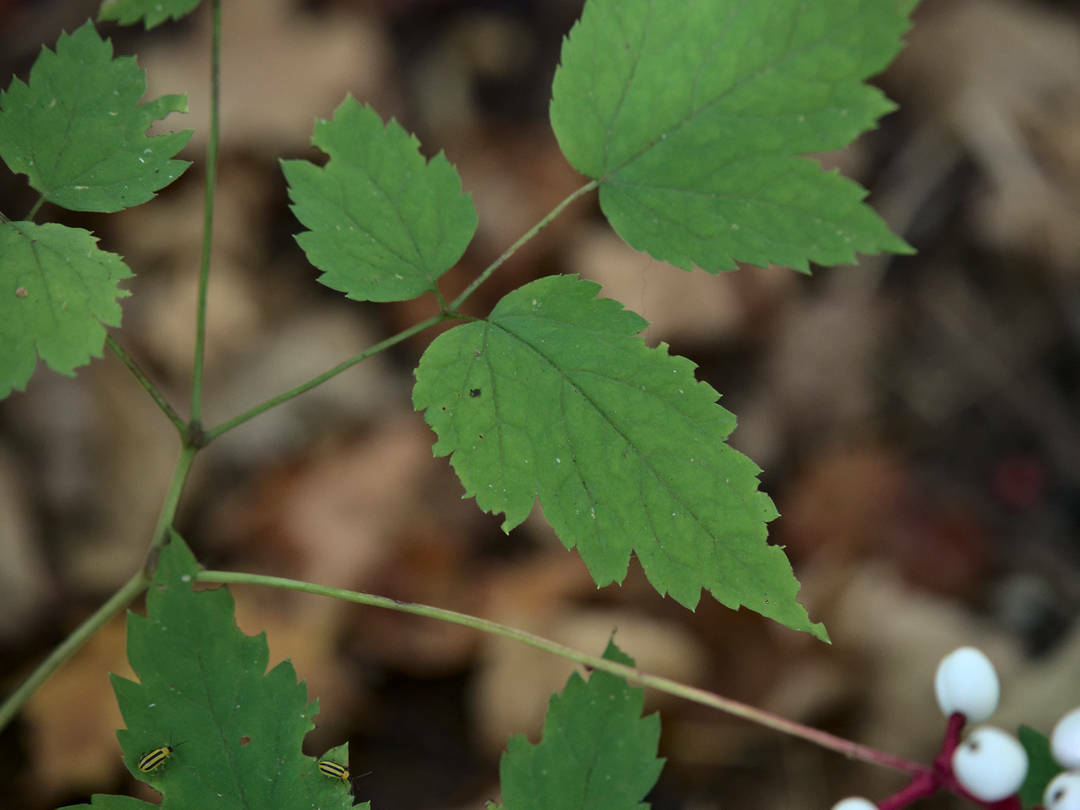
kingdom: Plantae
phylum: Tracheophyta
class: Magnoliopsida
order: Ranunculales
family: Ranunculaceae
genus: Actaea
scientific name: Actaea pachypoda
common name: Doll's-eyes
